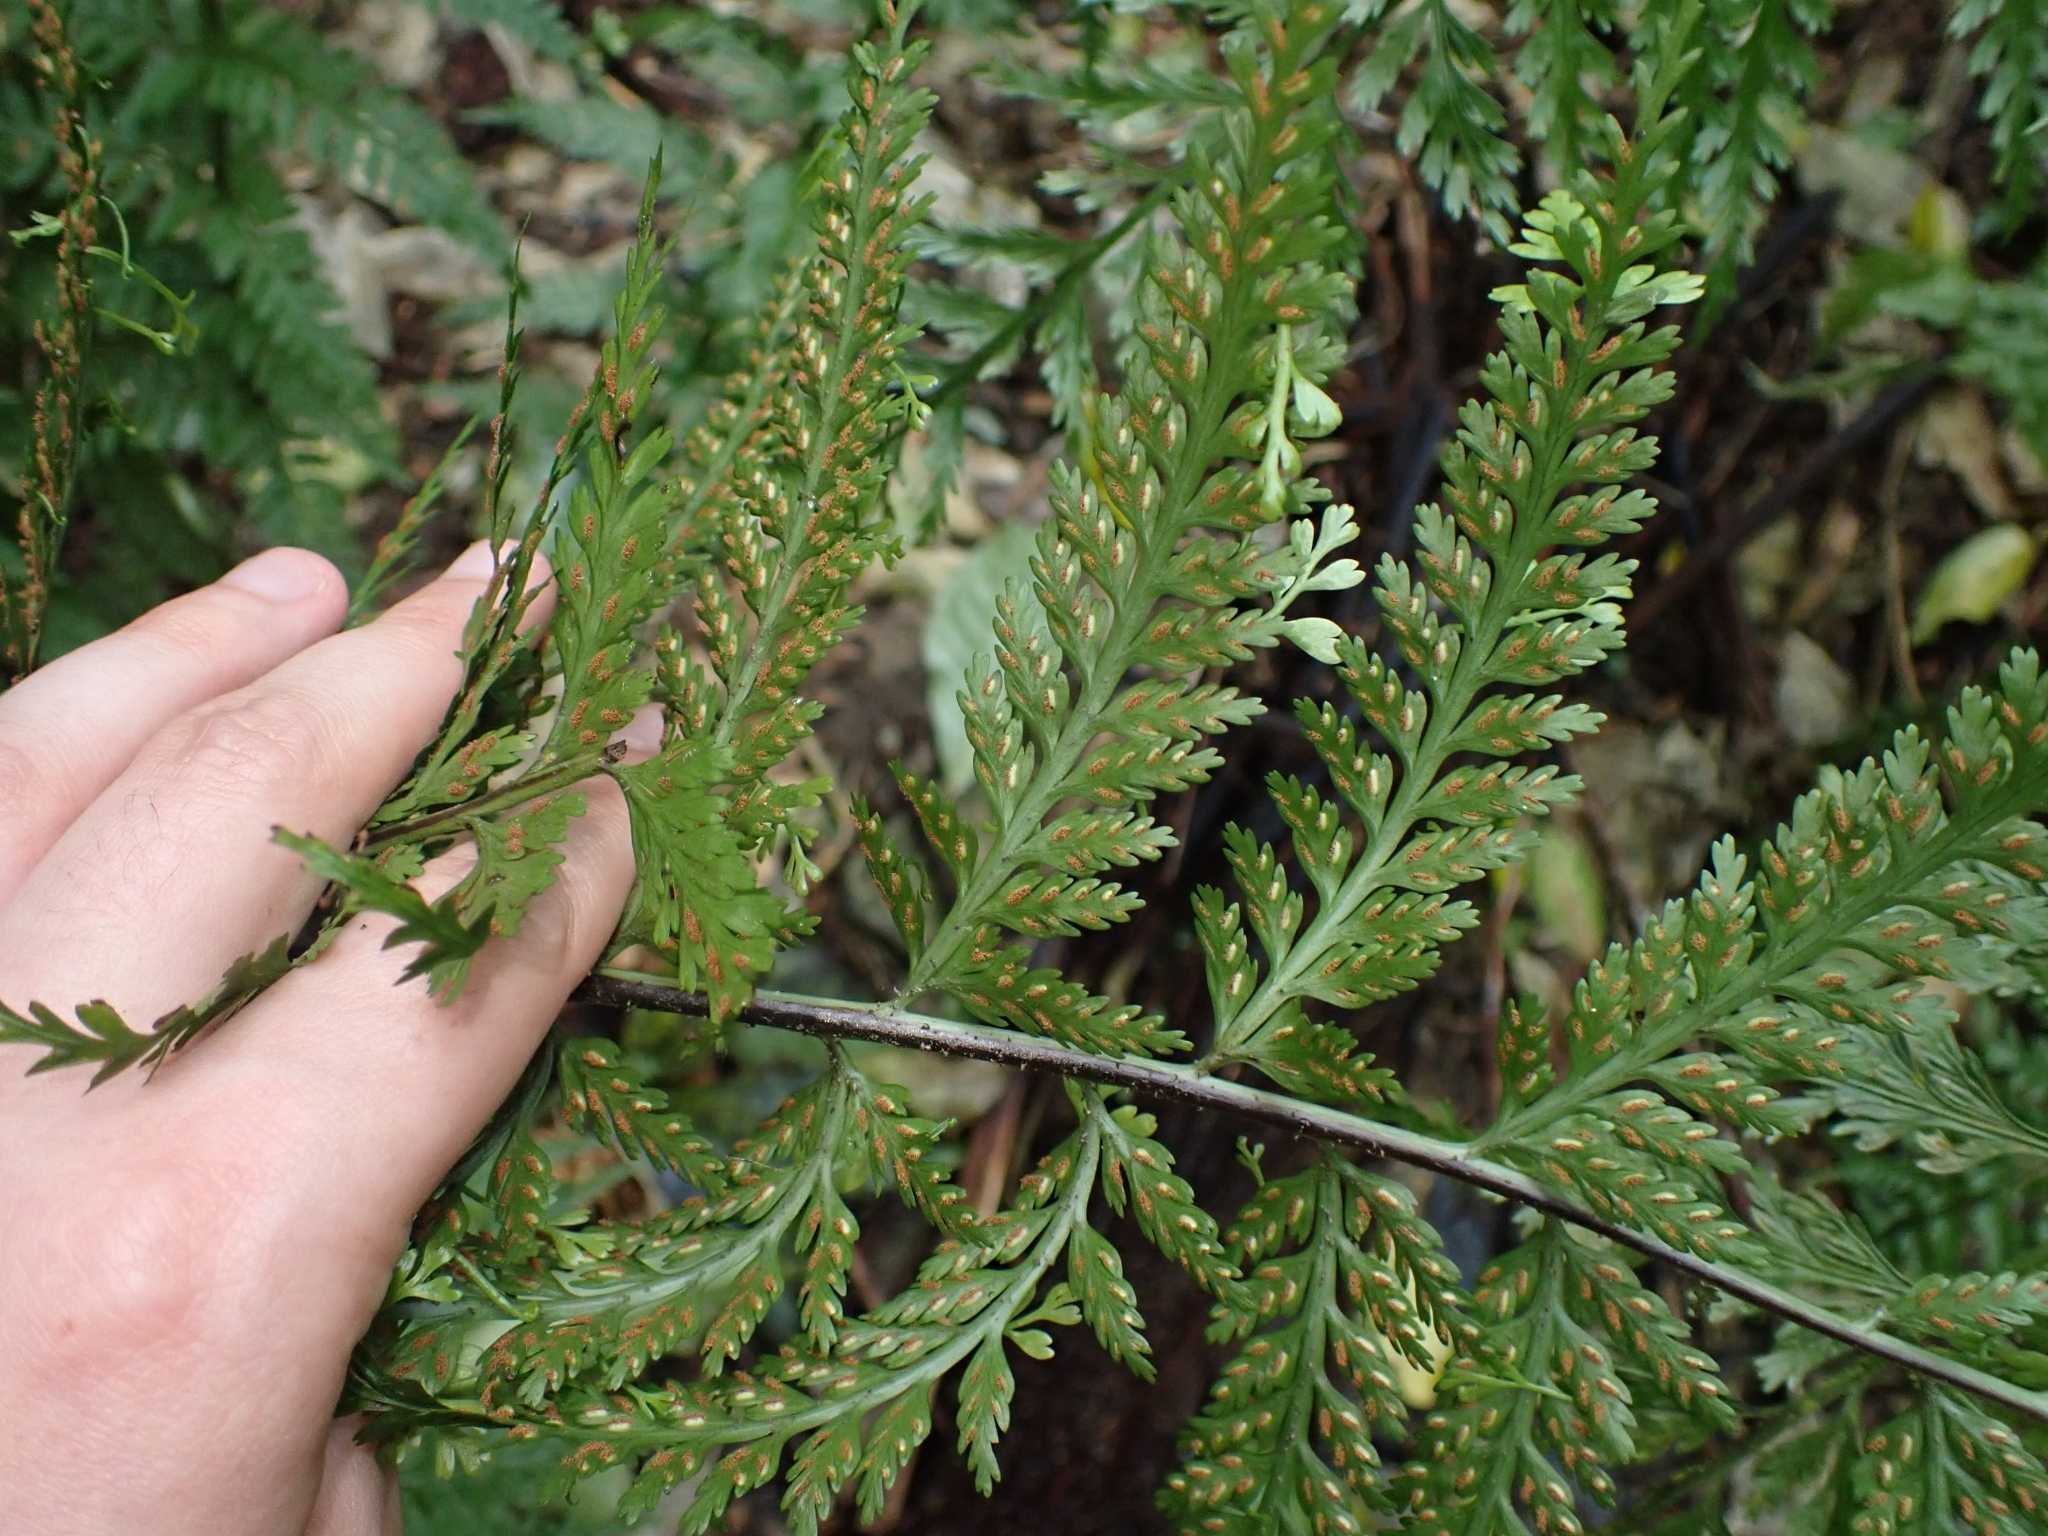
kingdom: Plantae
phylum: Tracheophyta
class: Polypodiopsida
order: Polypodiales
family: Aspleniaceae
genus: Asplenium
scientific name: Asplenium bulbiferum
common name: Mother fern
